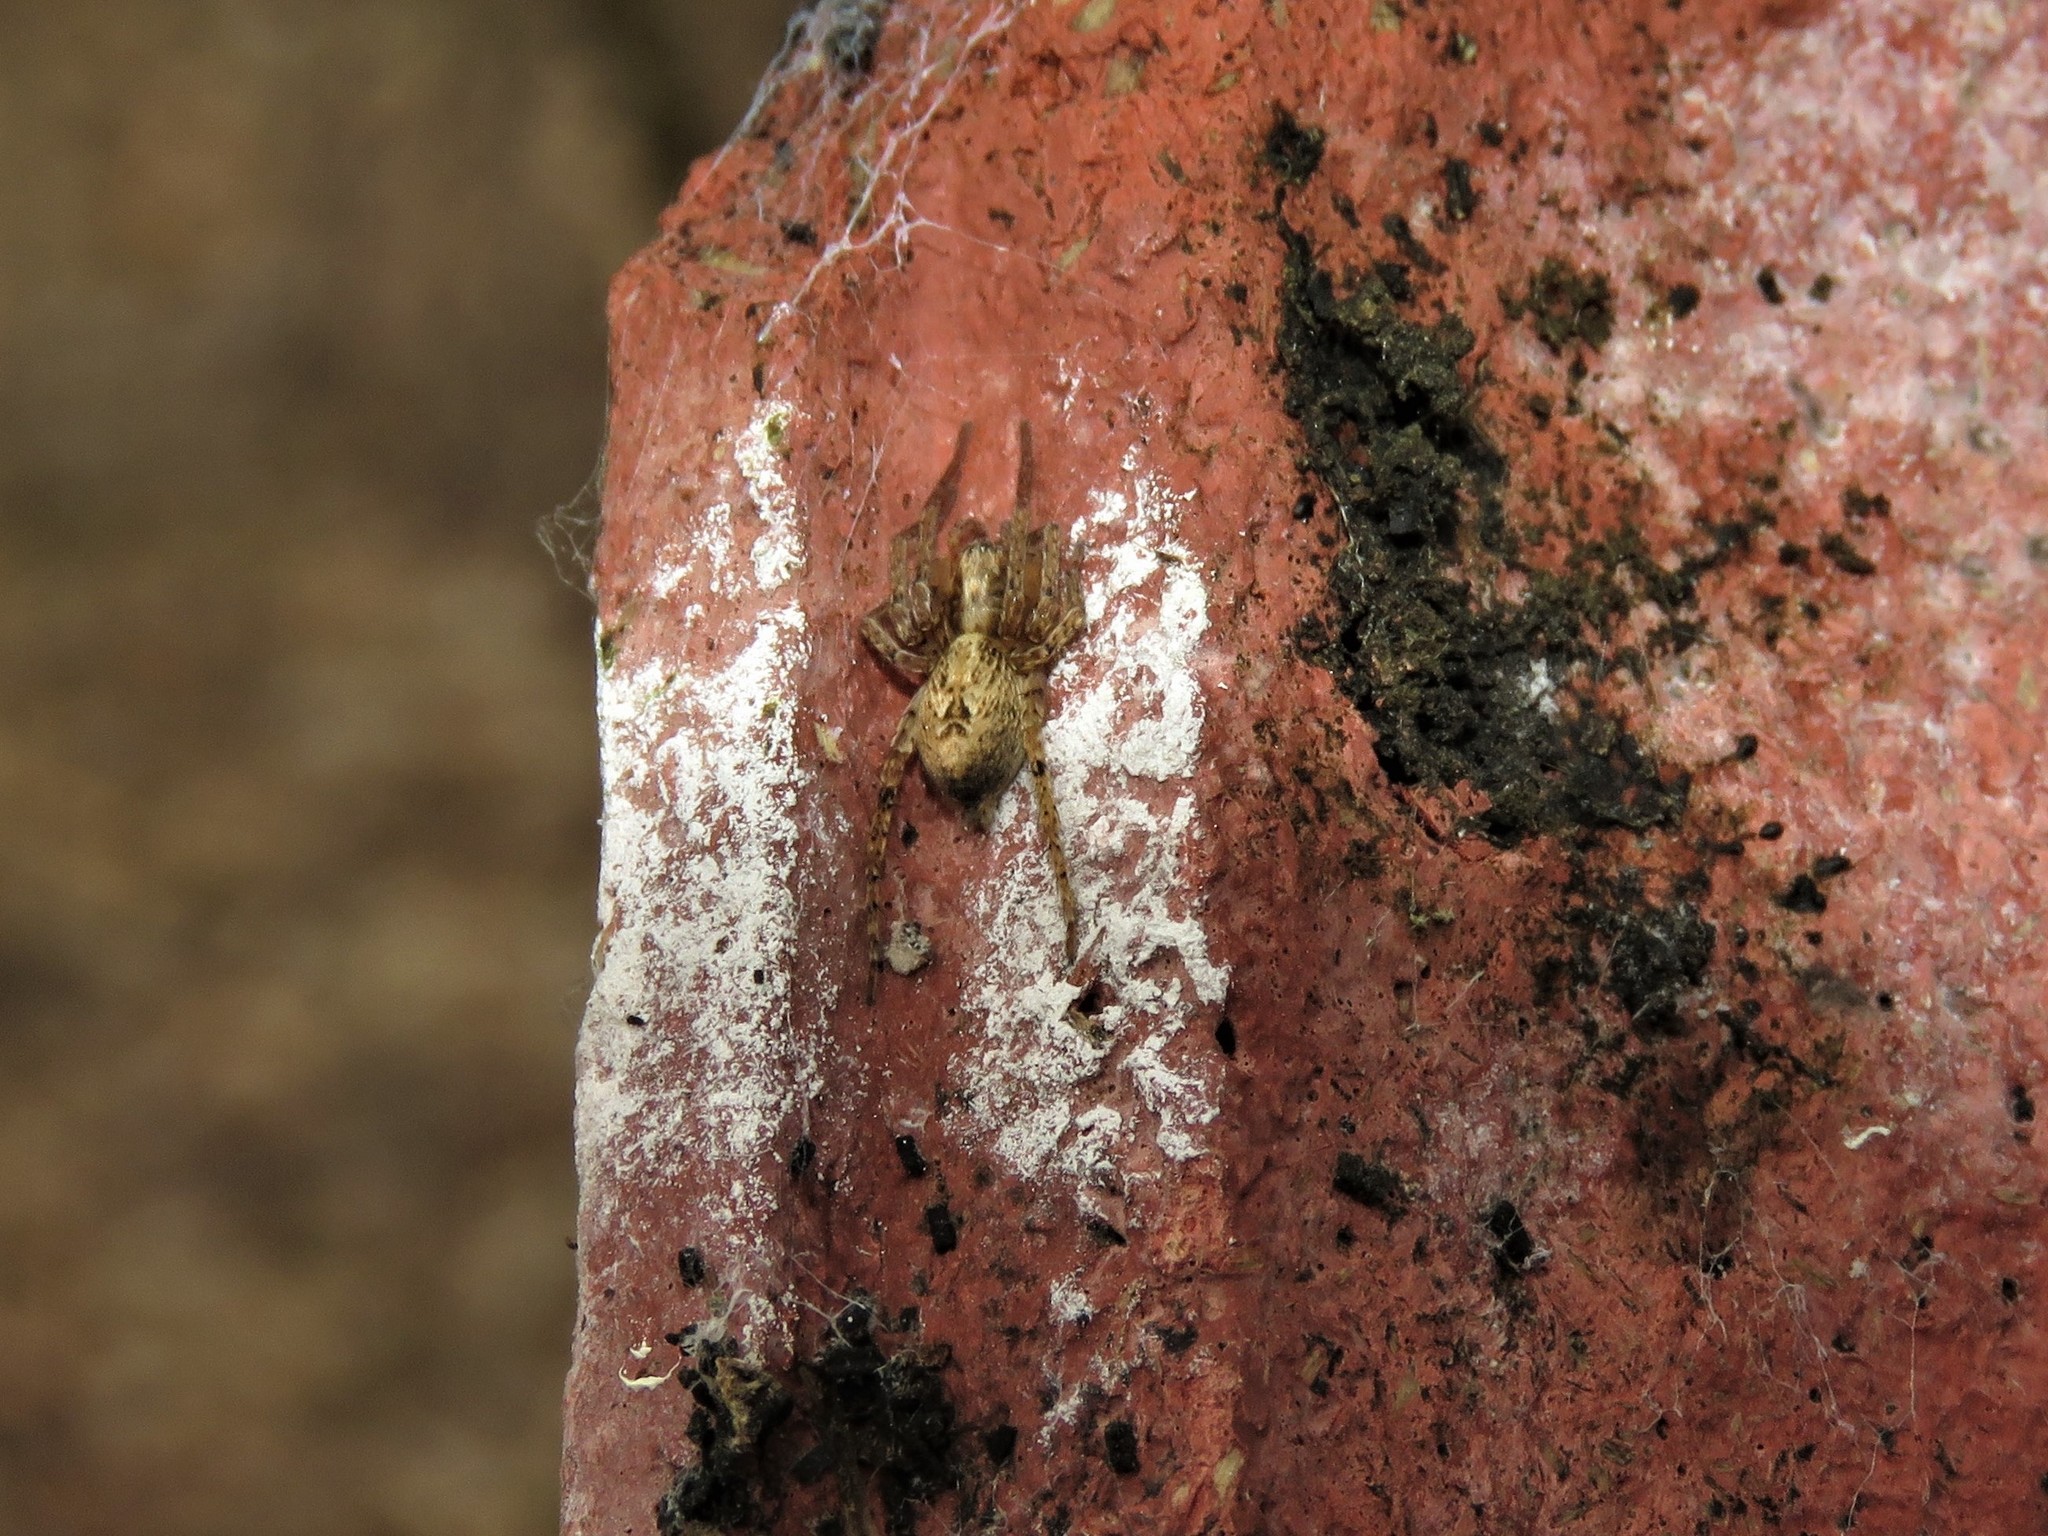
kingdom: Animalia
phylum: Arthropoda
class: Arachnida
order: Araneae
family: Anyphaenidae
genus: Anyphaena
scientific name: Anyphaena accentuata
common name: Buzzing spider
